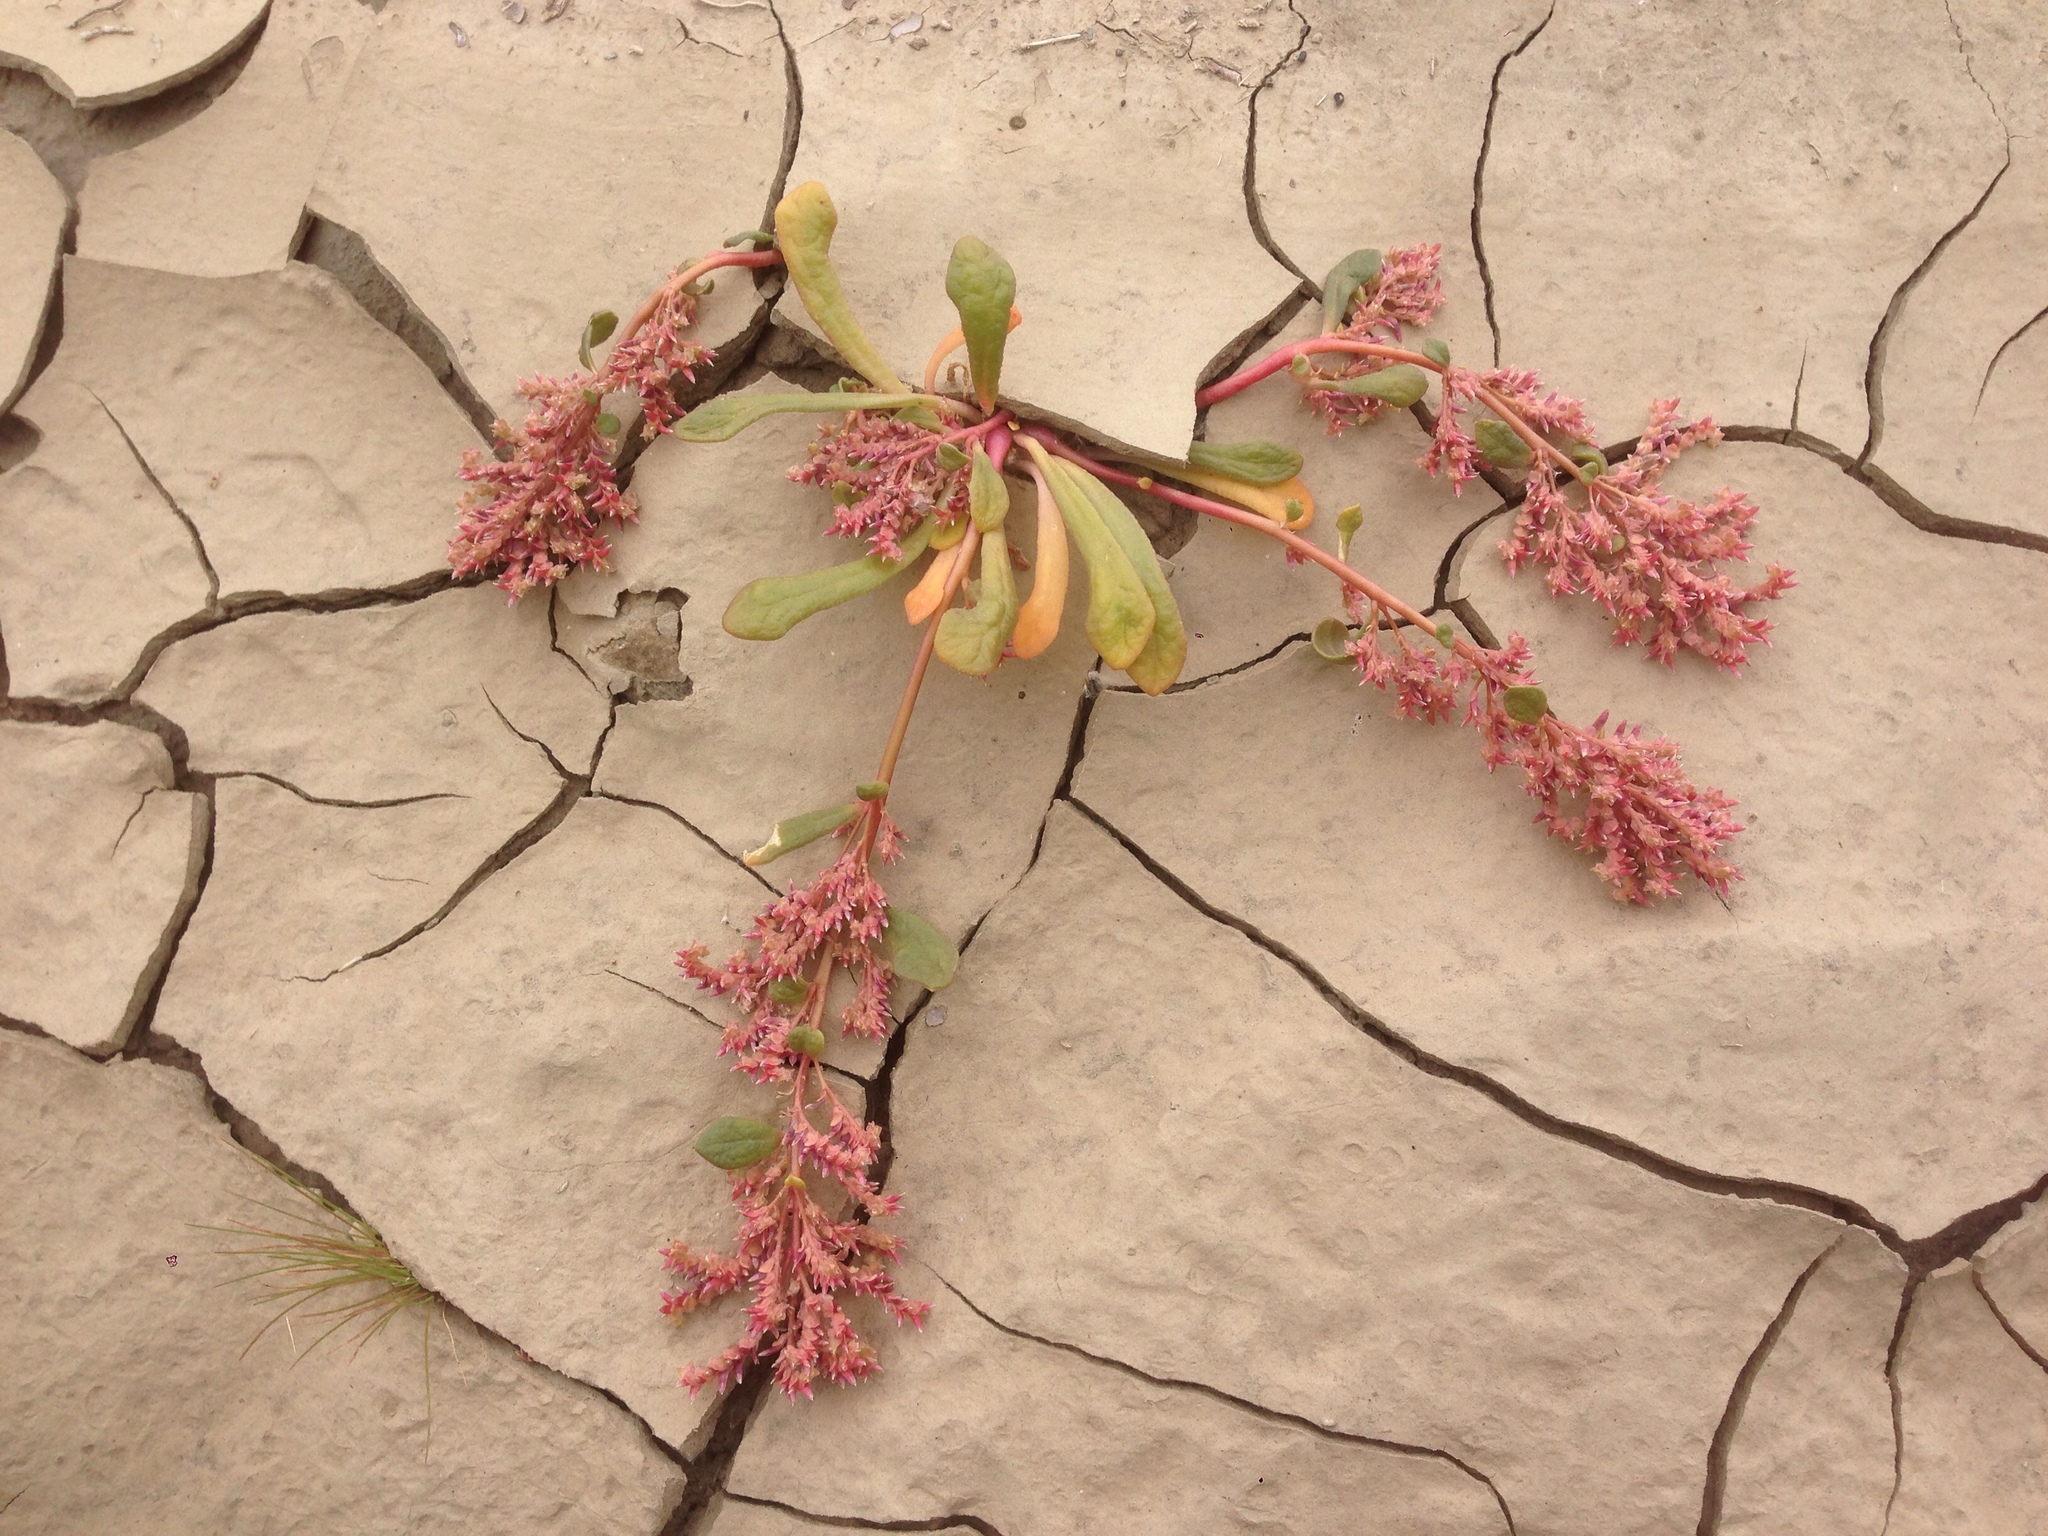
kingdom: Plantae
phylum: Tracheophyta
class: Magnoliopsida
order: Caryophyllales
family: Montiaceae
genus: Calyptridium
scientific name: Calyptridium monandrum
